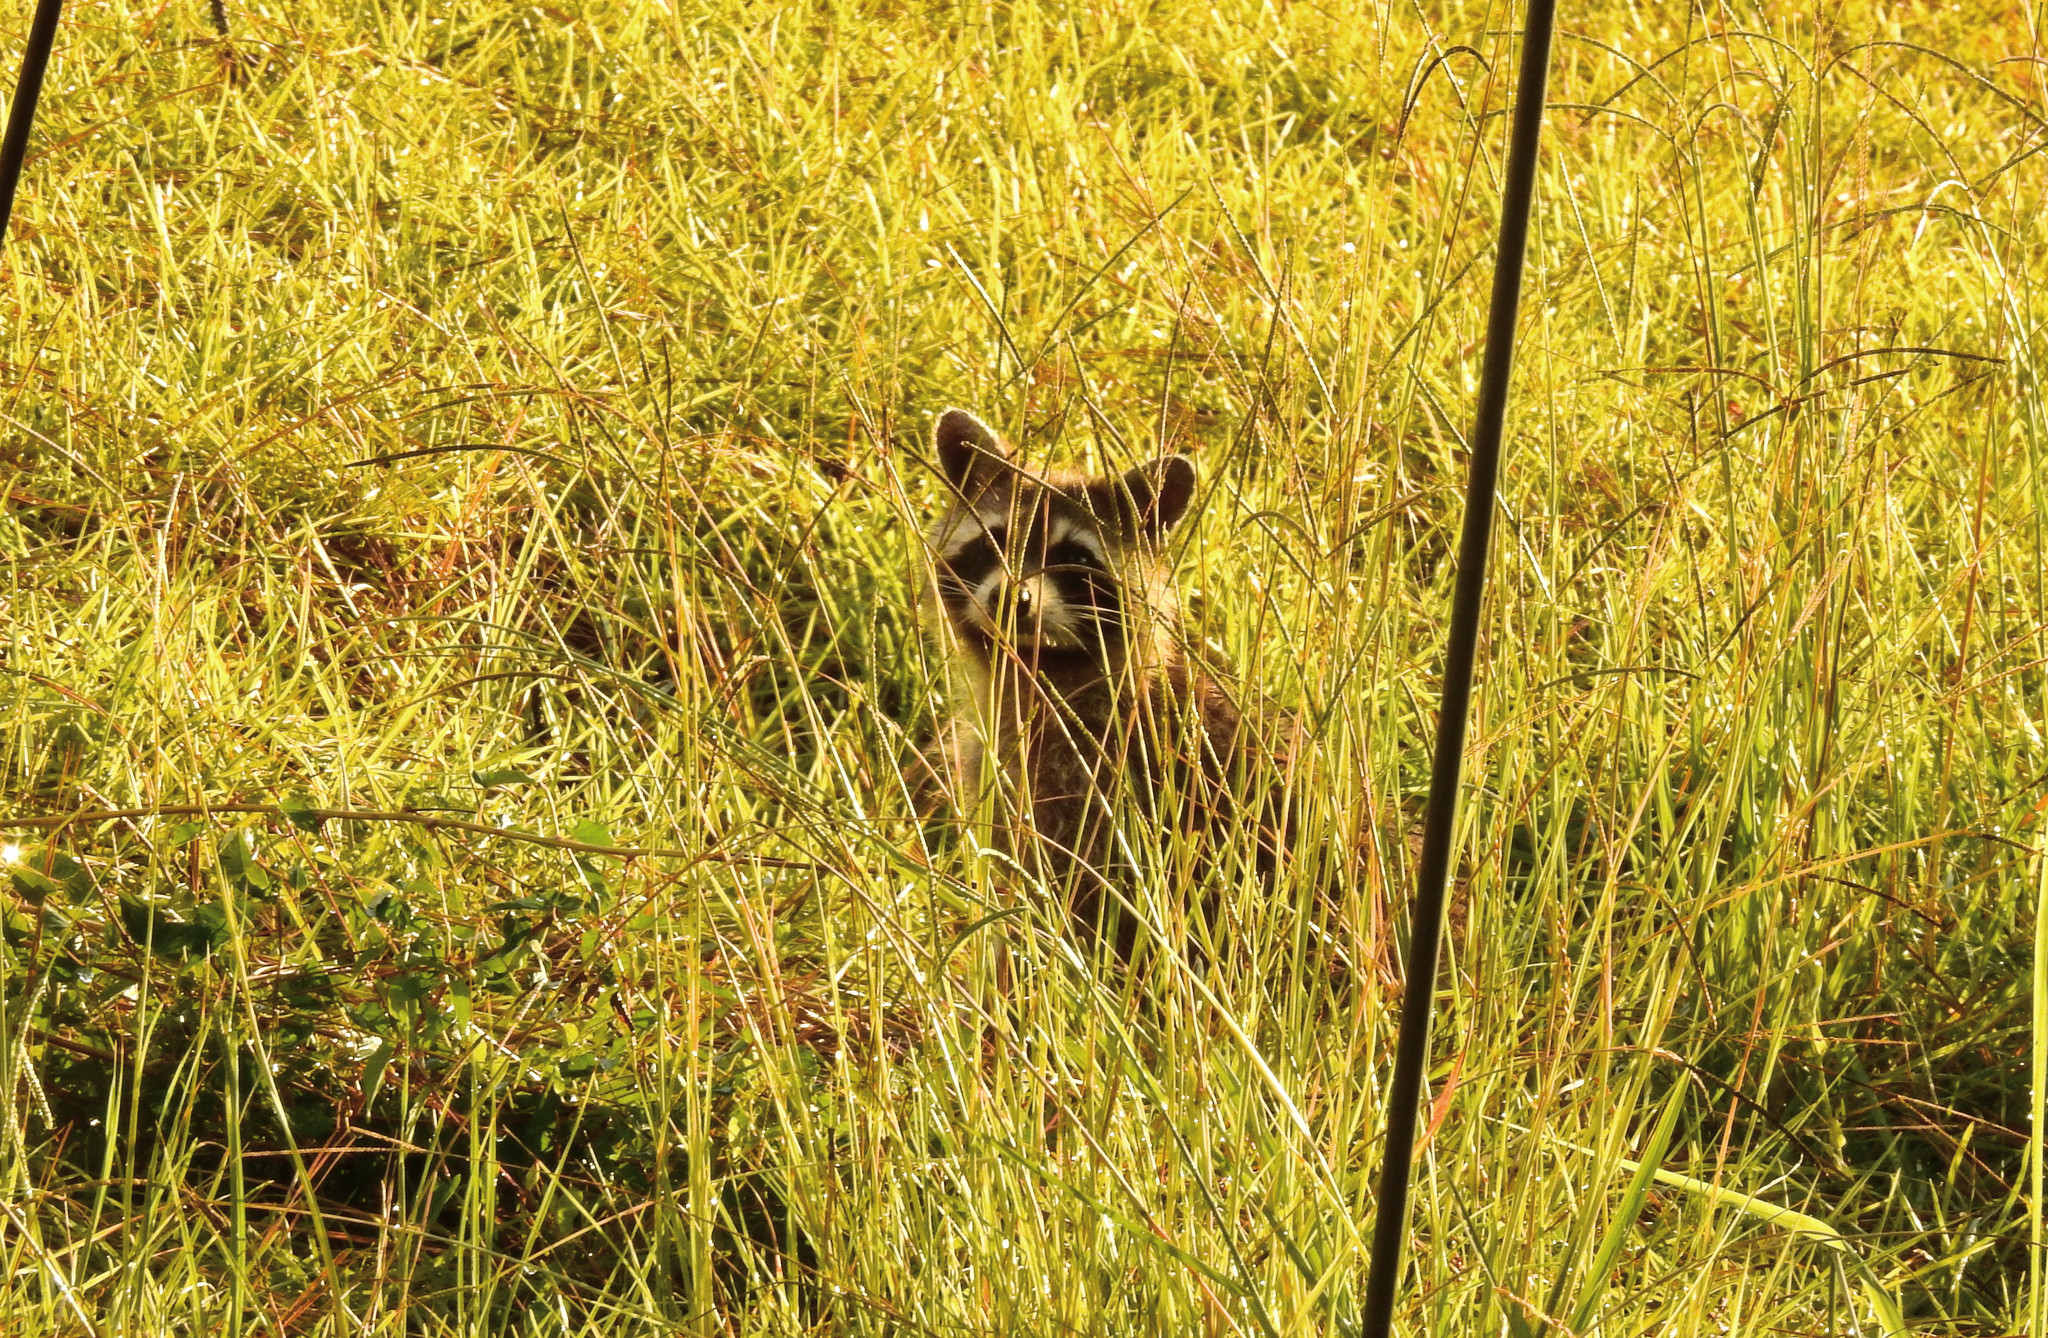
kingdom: Animalia
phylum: Chordata
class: Mammalia
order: Carnivora
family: Procyonidae
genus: Procyon
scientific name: Procyon lotor
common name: Raccoon
